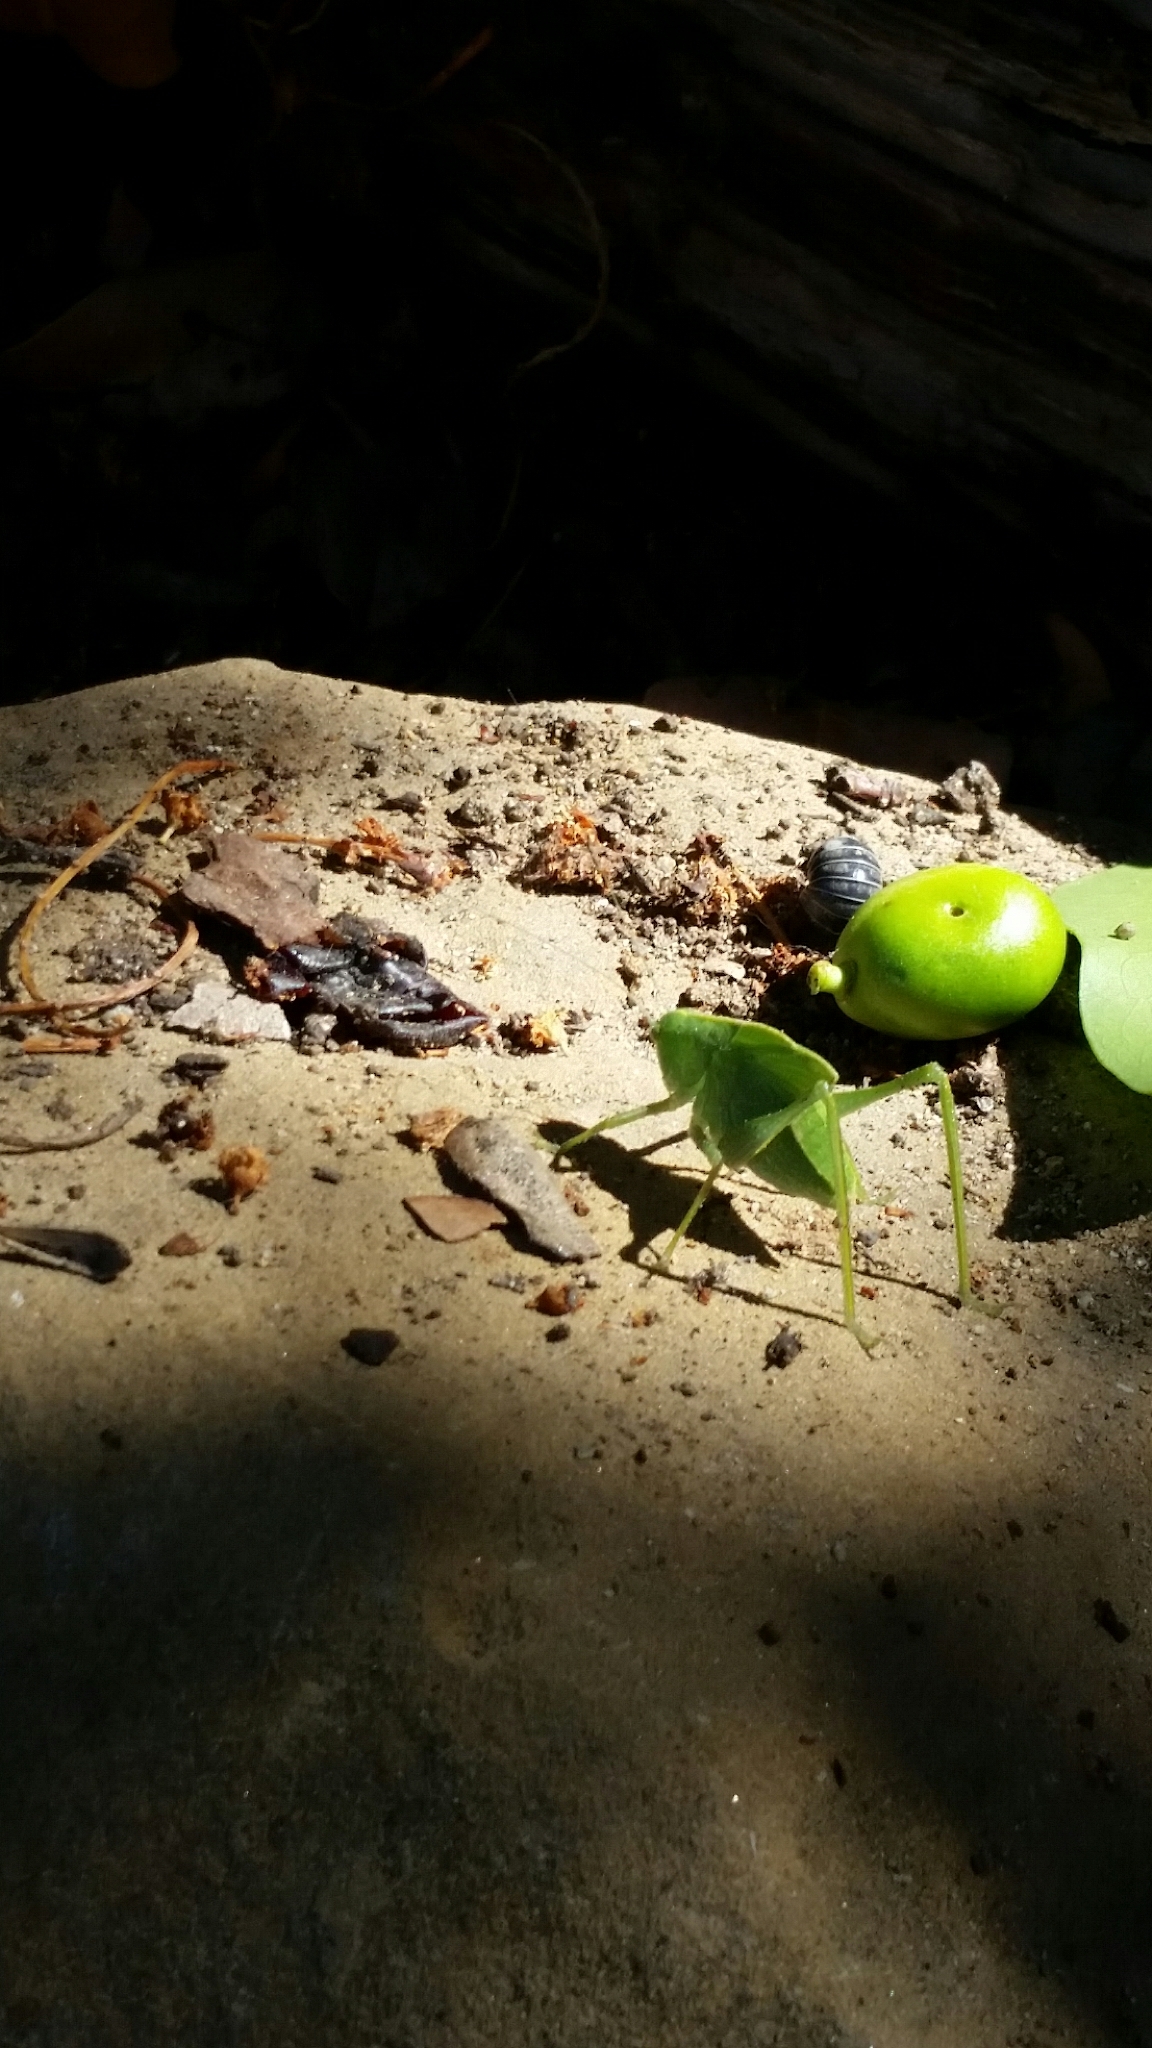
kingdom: Animalia
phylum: Arthropoda
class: Insecta
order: Orthoptera
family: Tettigoniidae
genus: Microcentrum
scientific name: Microcentrum rhombifolium
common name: Broad-winged katydid
